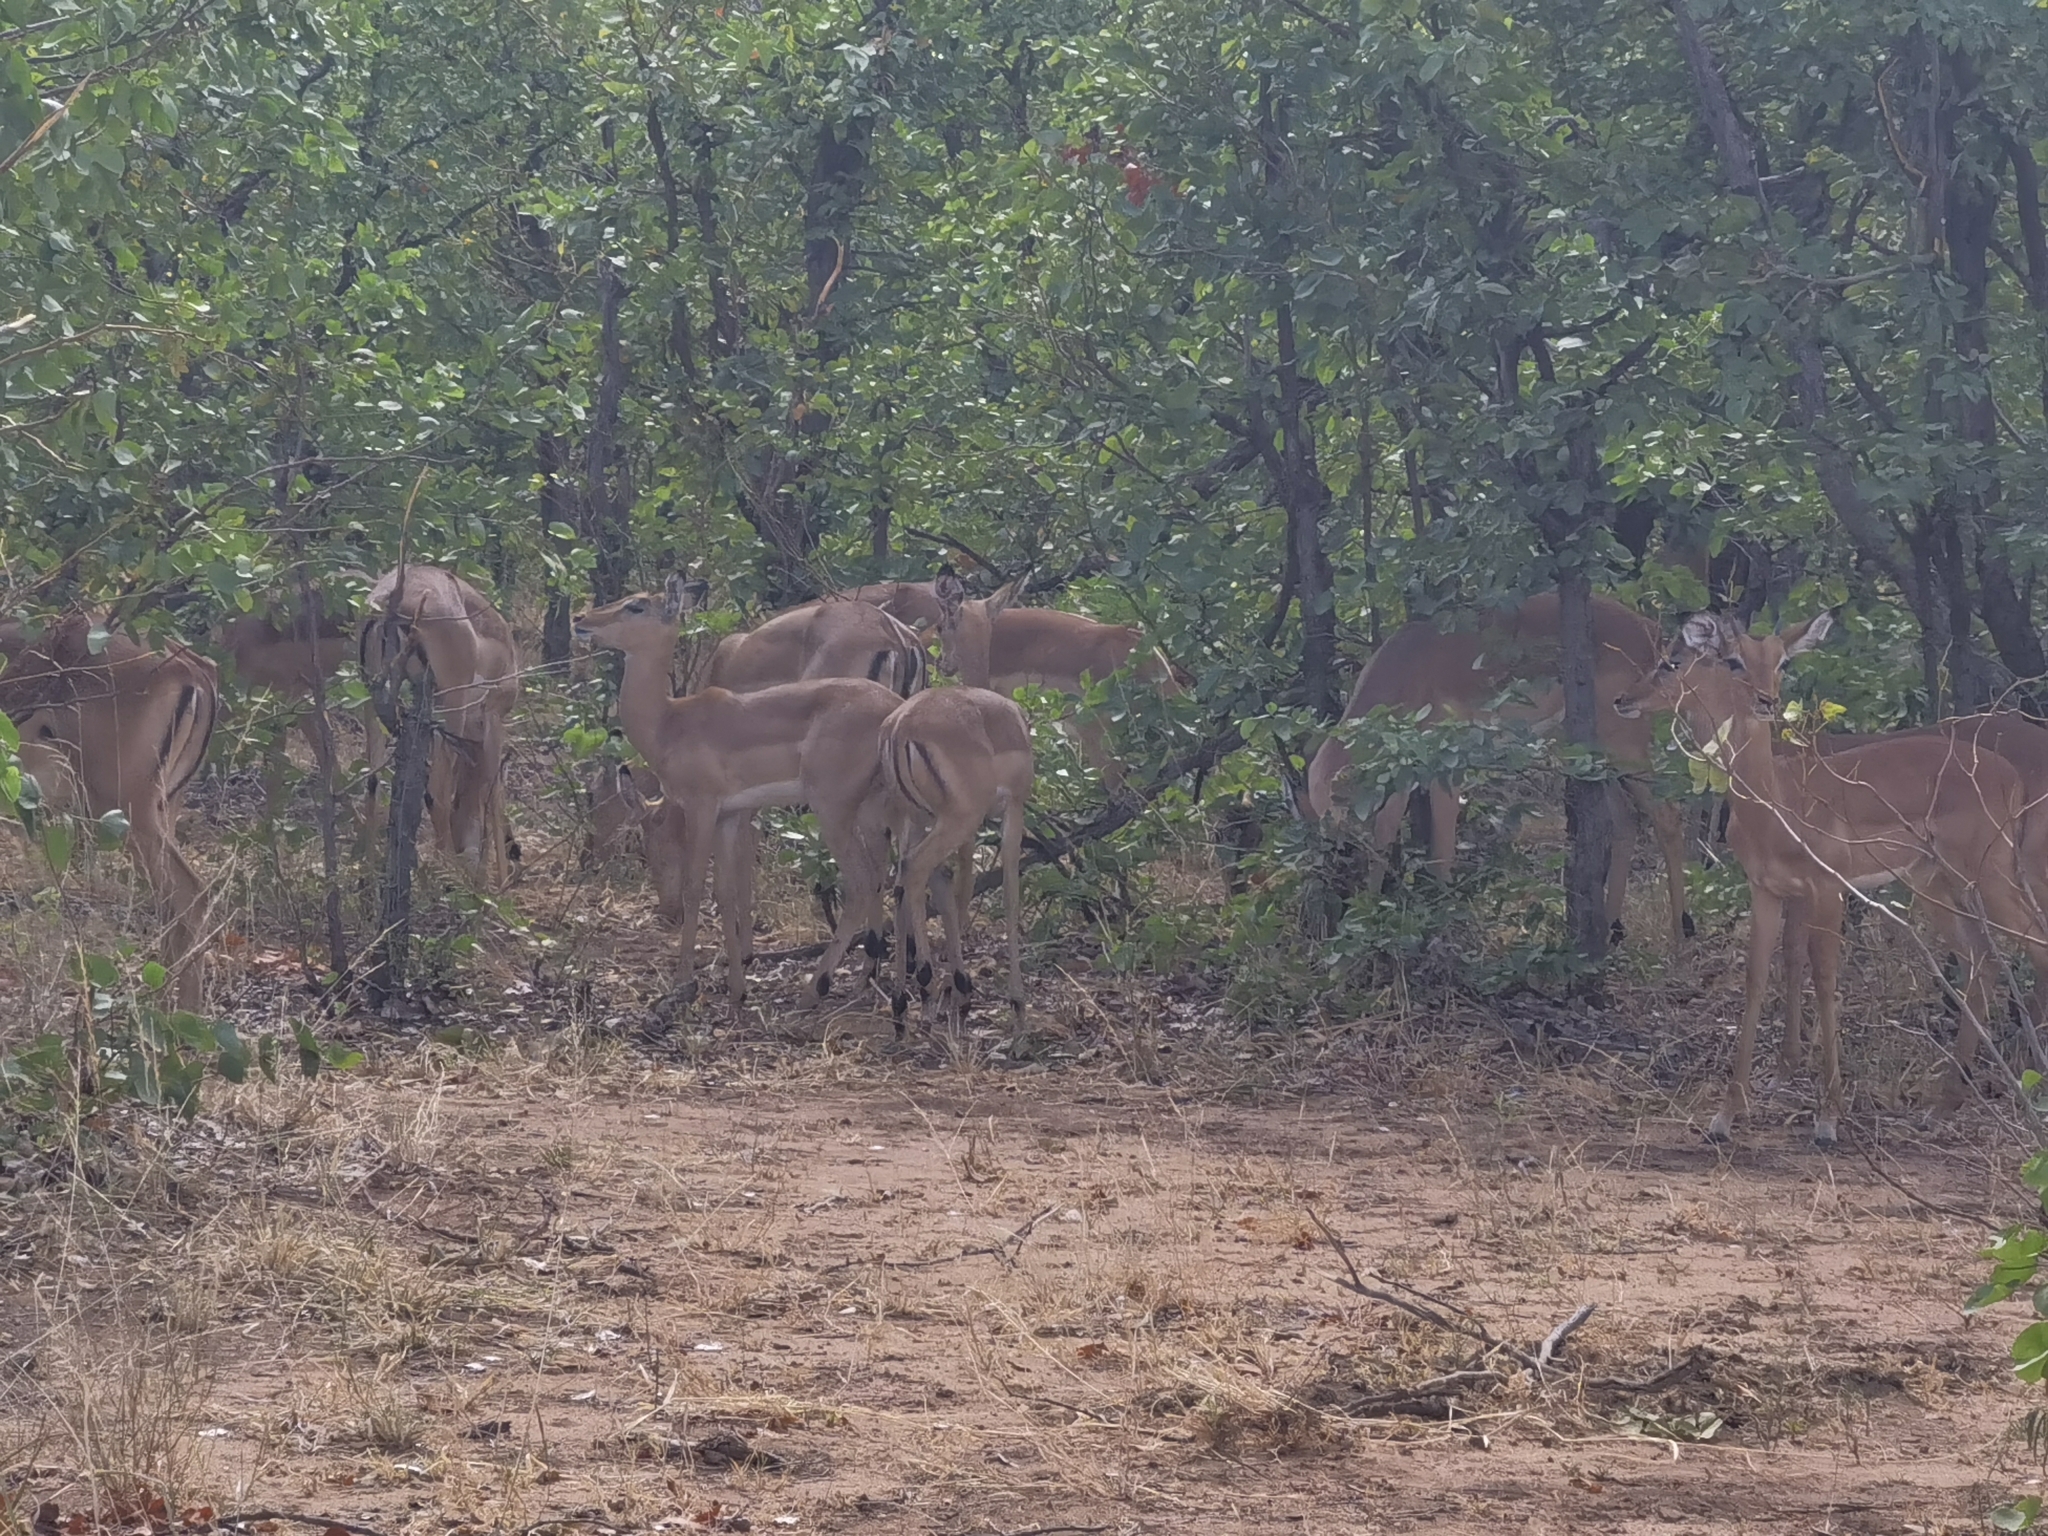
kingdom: Animalia
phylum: Chordata
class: Mammalia
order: Artiodactyla
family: Bovidae
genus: Aepyceros
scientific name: Aepyceros melampus
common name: Impala
